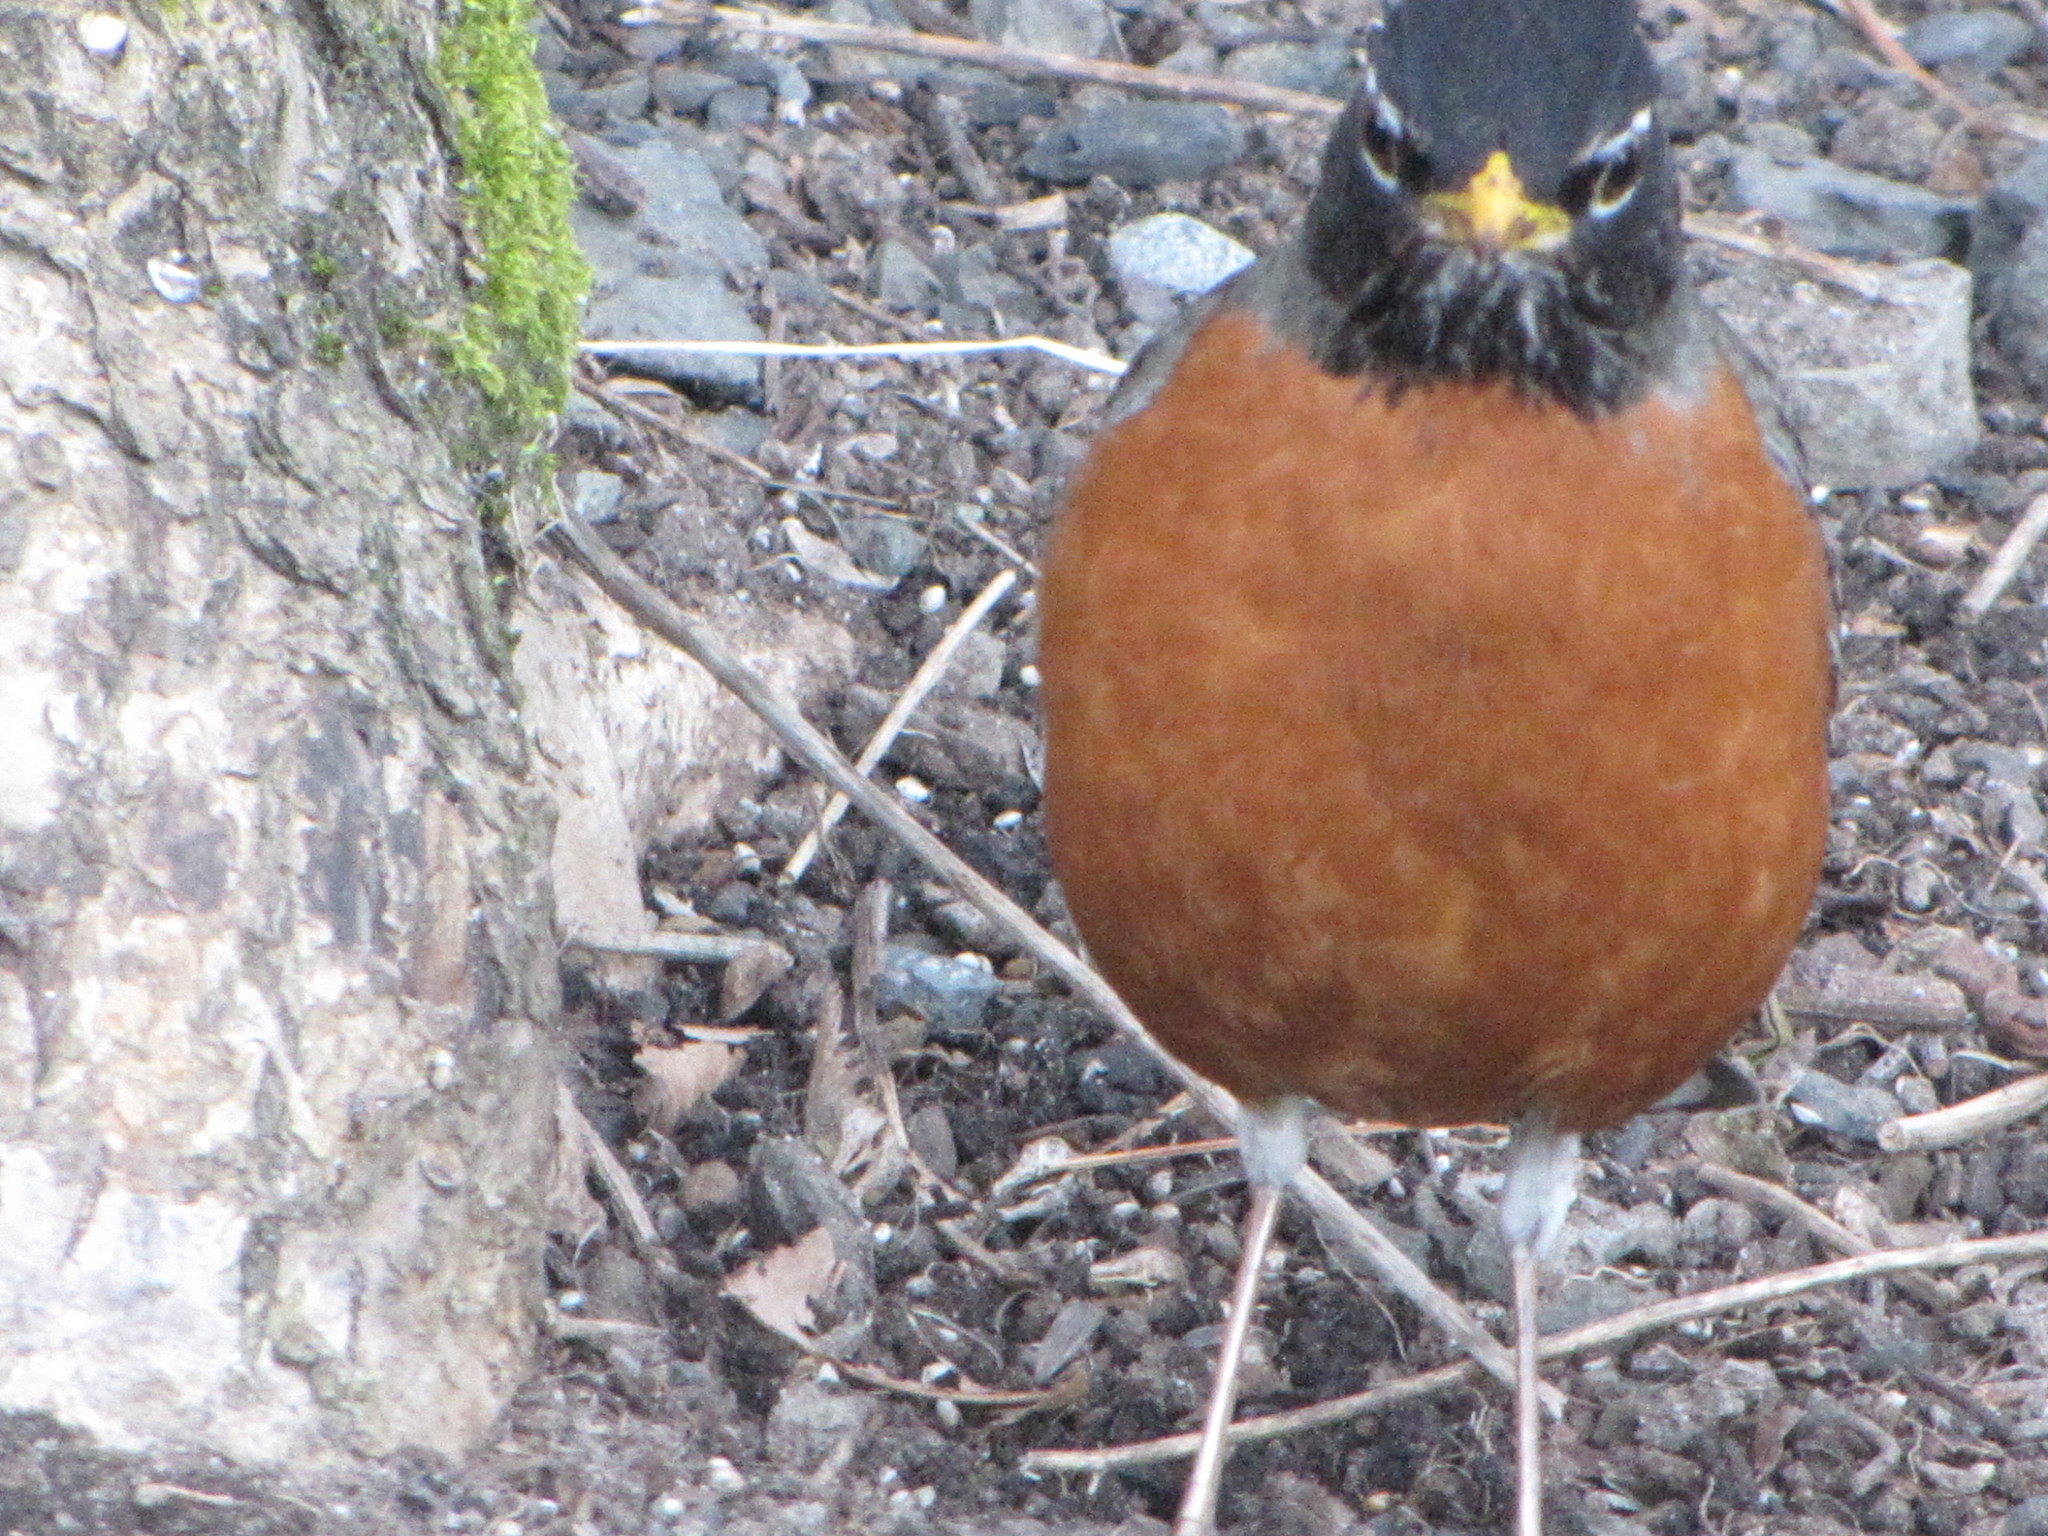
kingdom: Animalia
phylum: Chordata
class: Aves
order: Passeriformes
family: Turdidae
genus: Turdus
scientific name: Turdus migratorius
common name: American robin
